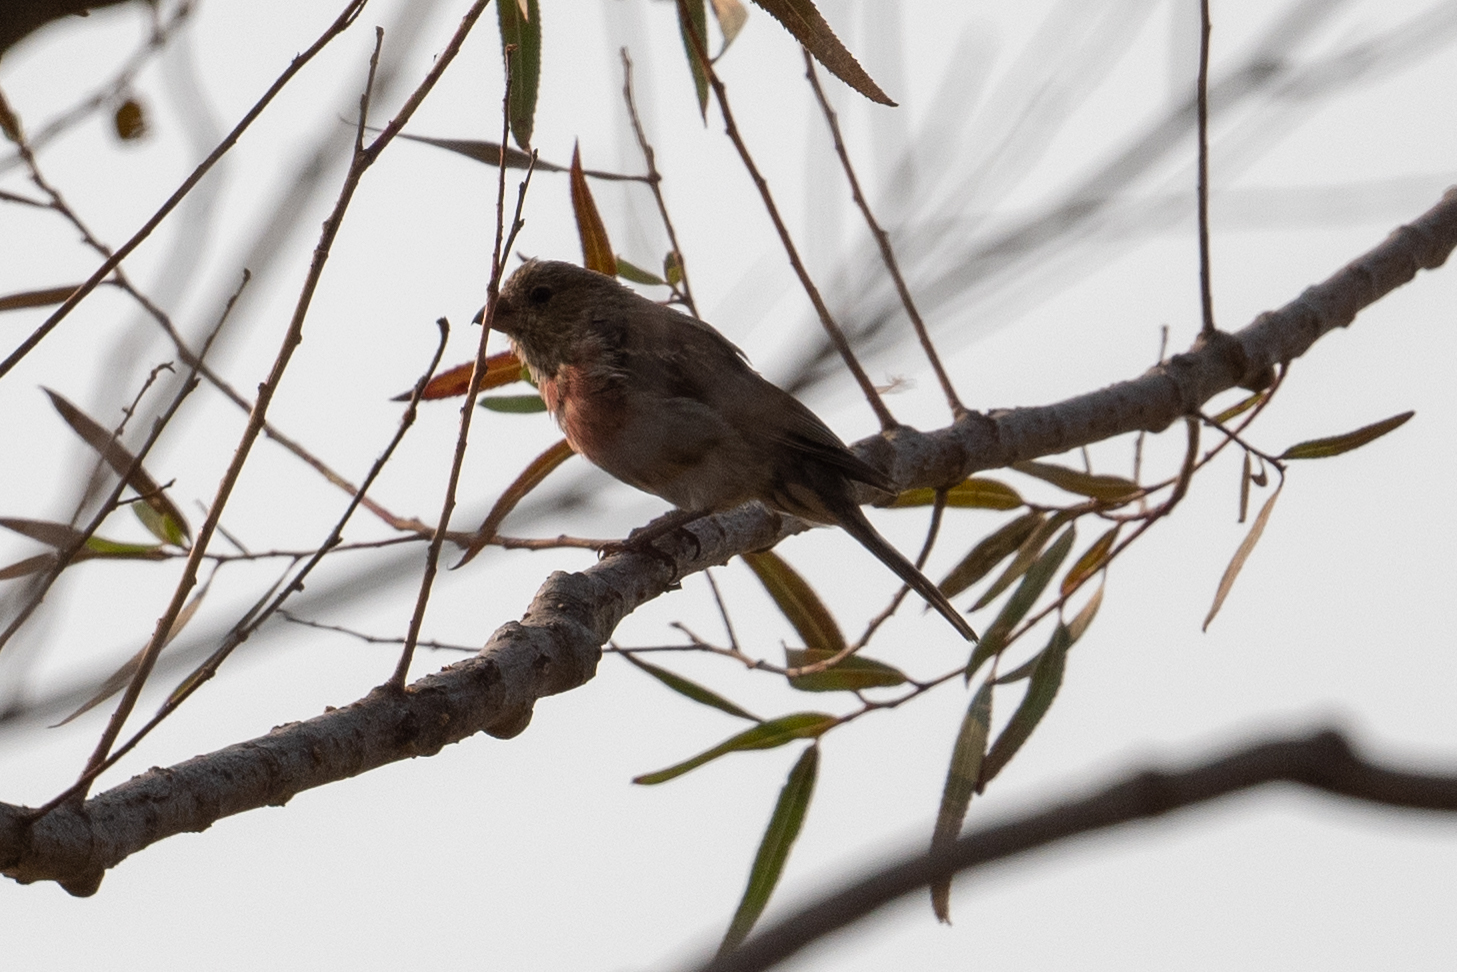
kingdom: Animalia
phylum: Chordata
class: Aves
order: Passeriformes
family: Fringillidae
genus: Haemorhous
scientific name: Haemorhous mexicanus
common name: House finch
